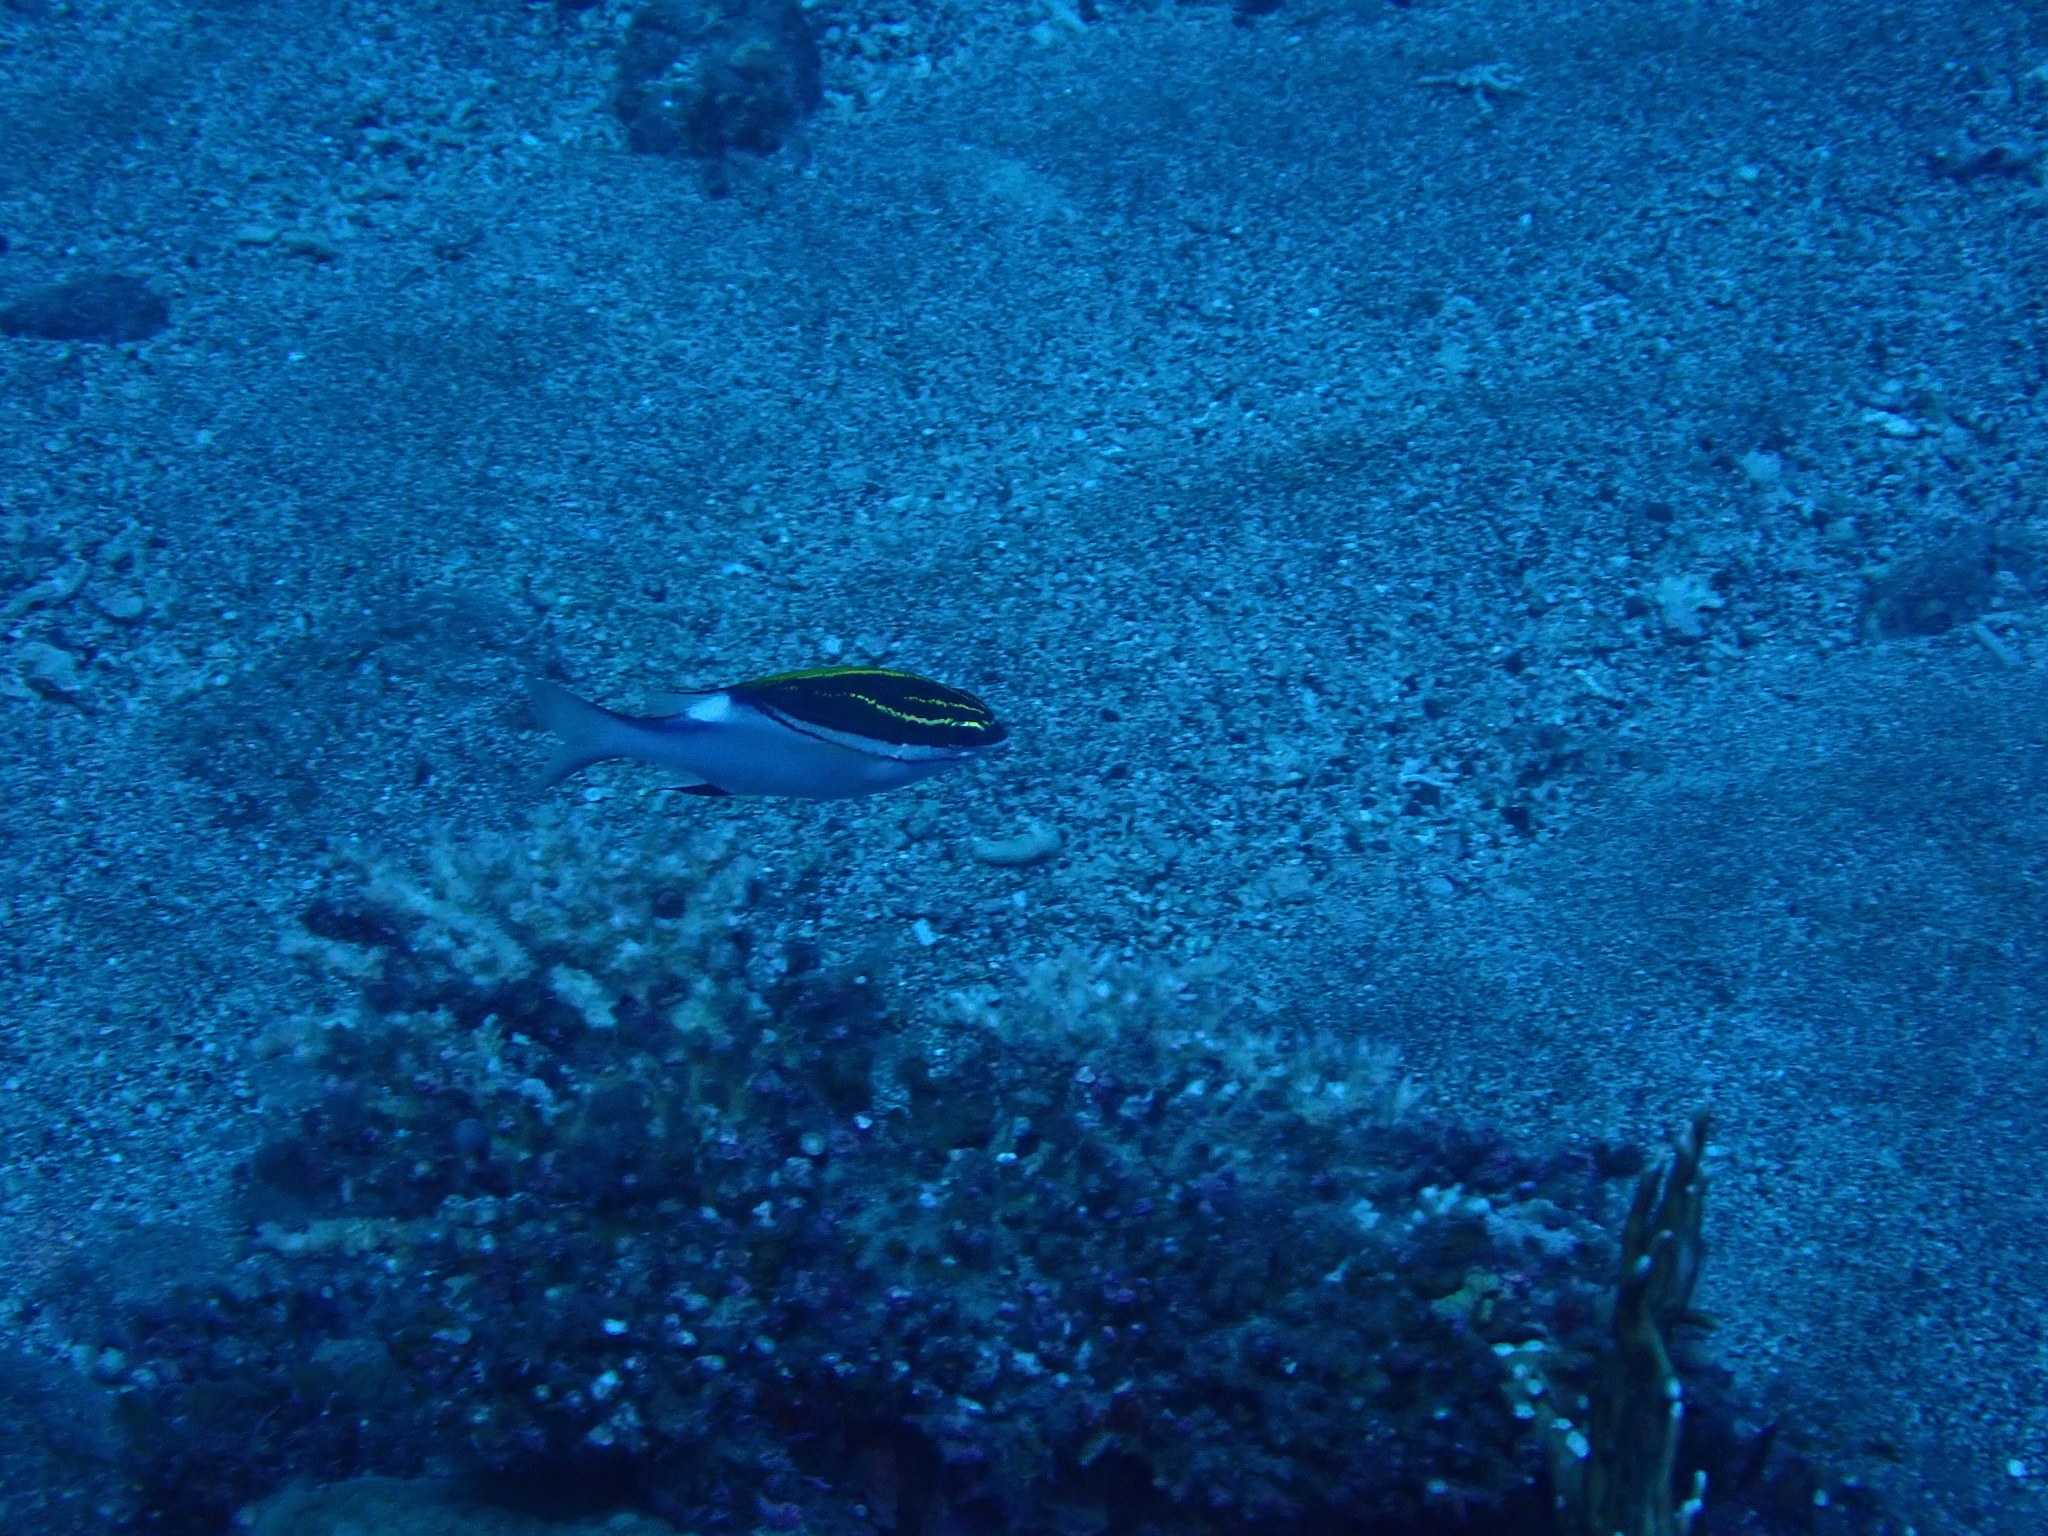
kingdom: Animalia
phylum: Chordata
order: Perciformes
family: Nemipteridae
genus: Scolopsis
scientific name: Scolopsis bilineata
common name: Two-lined monocle bream
